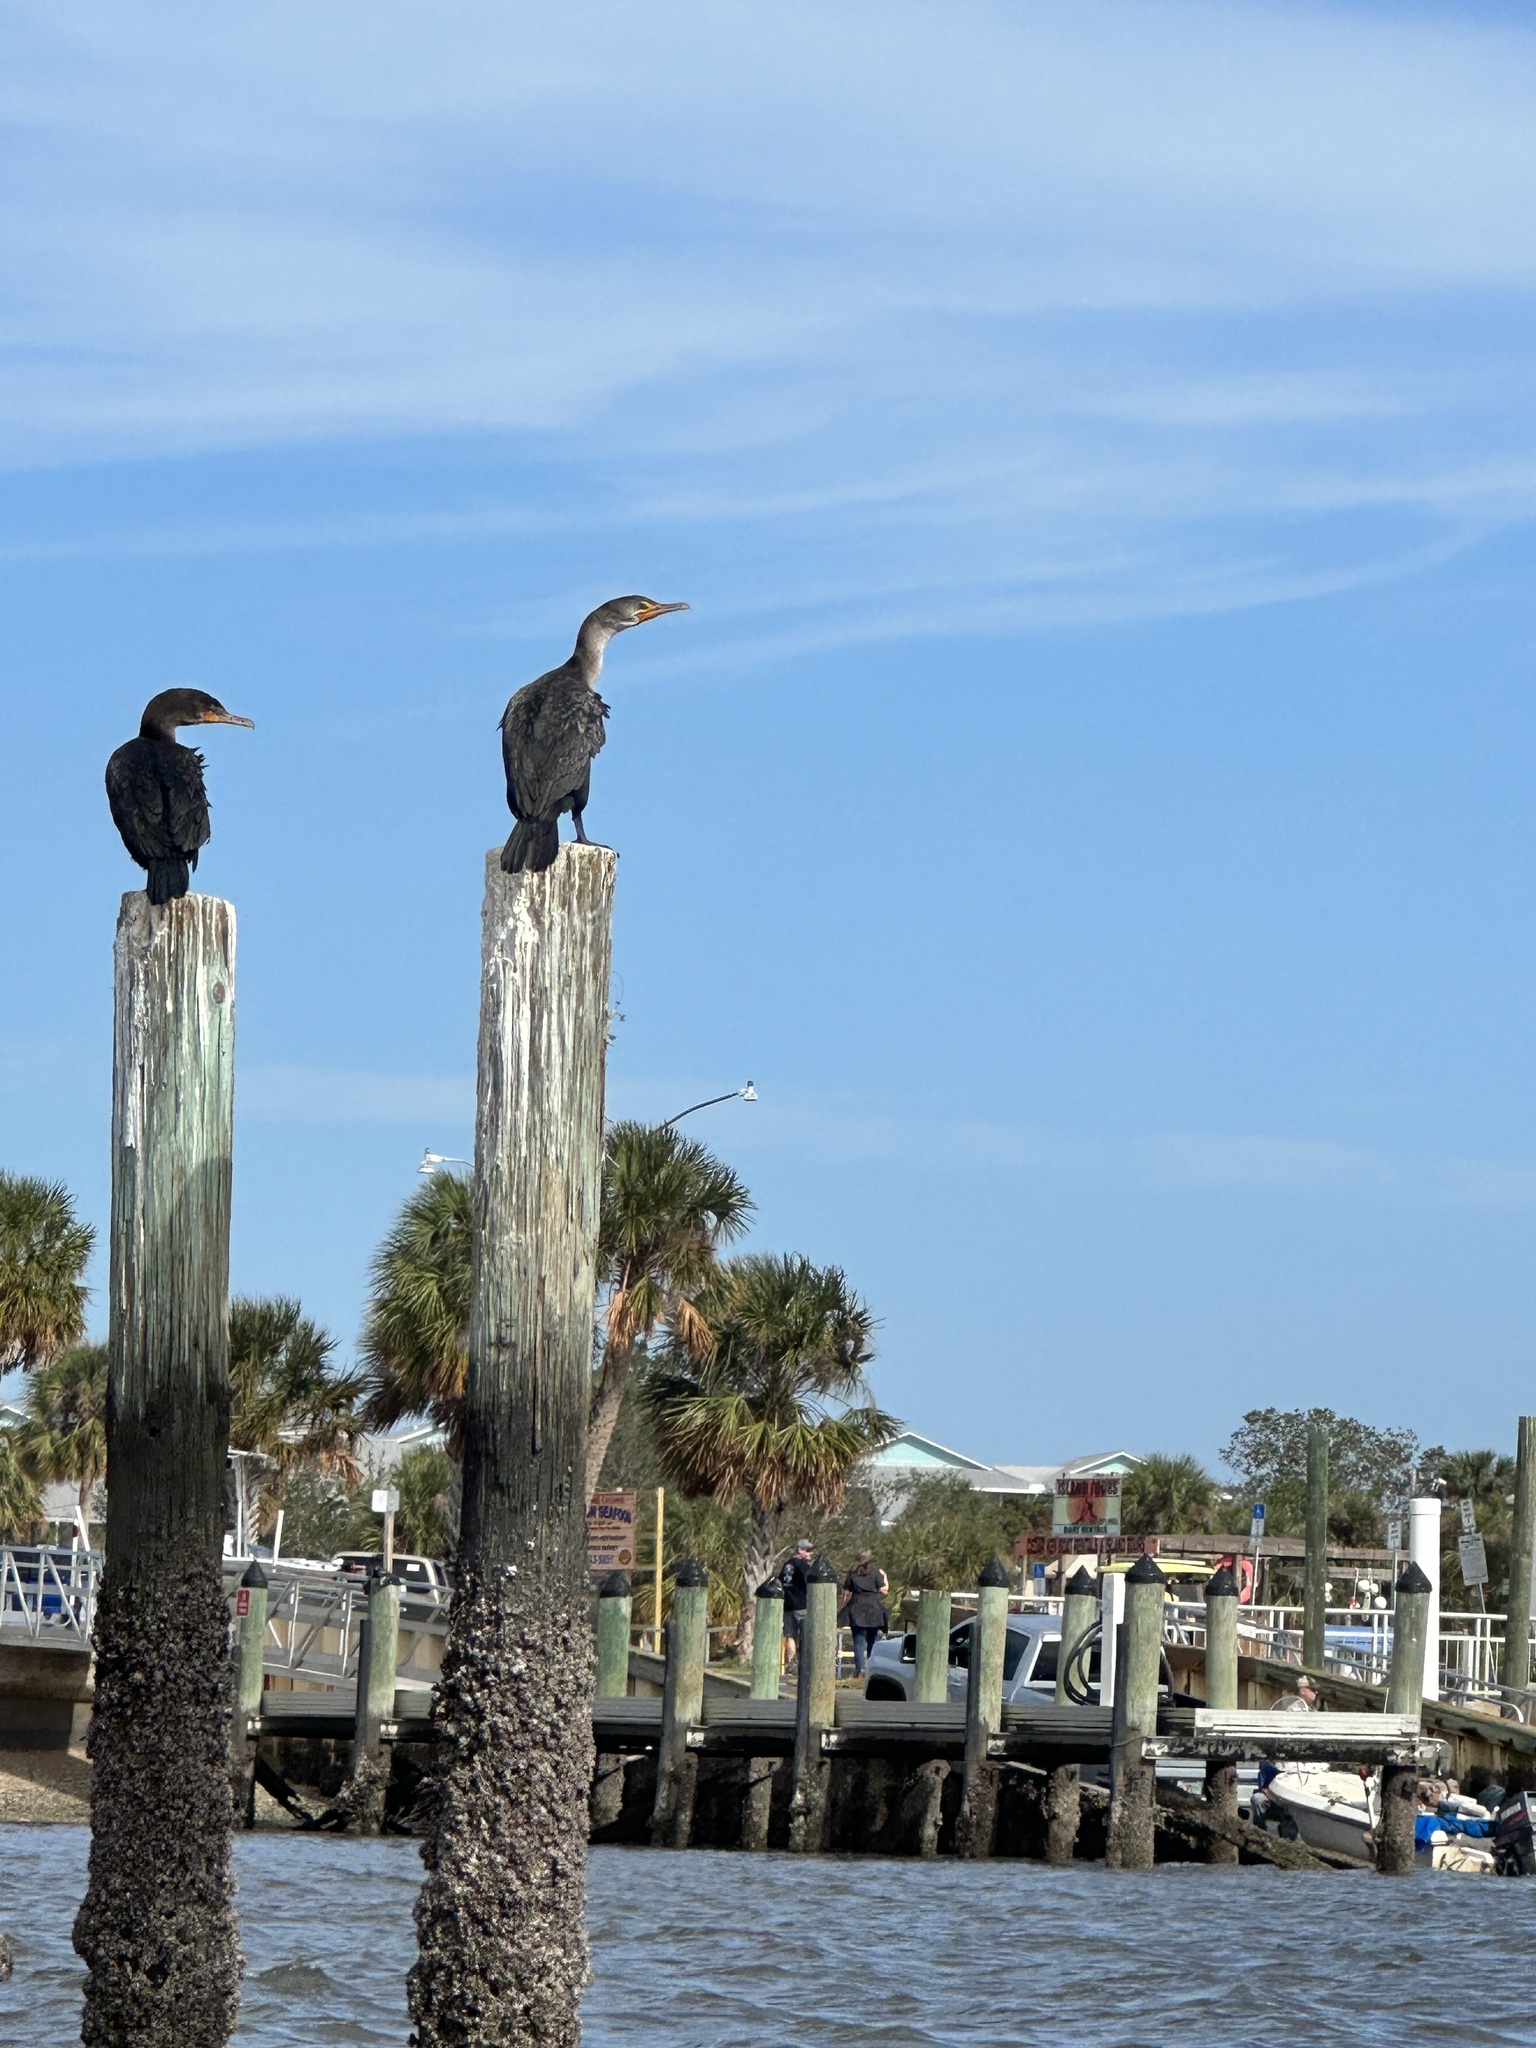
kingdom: Animalia
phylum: Chordata
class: Aves
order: Suliformes
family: Phalacrocoracidae
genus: Phalacrocorax
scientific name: Phalacrocorax auritus
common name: Double-crested cormorant
